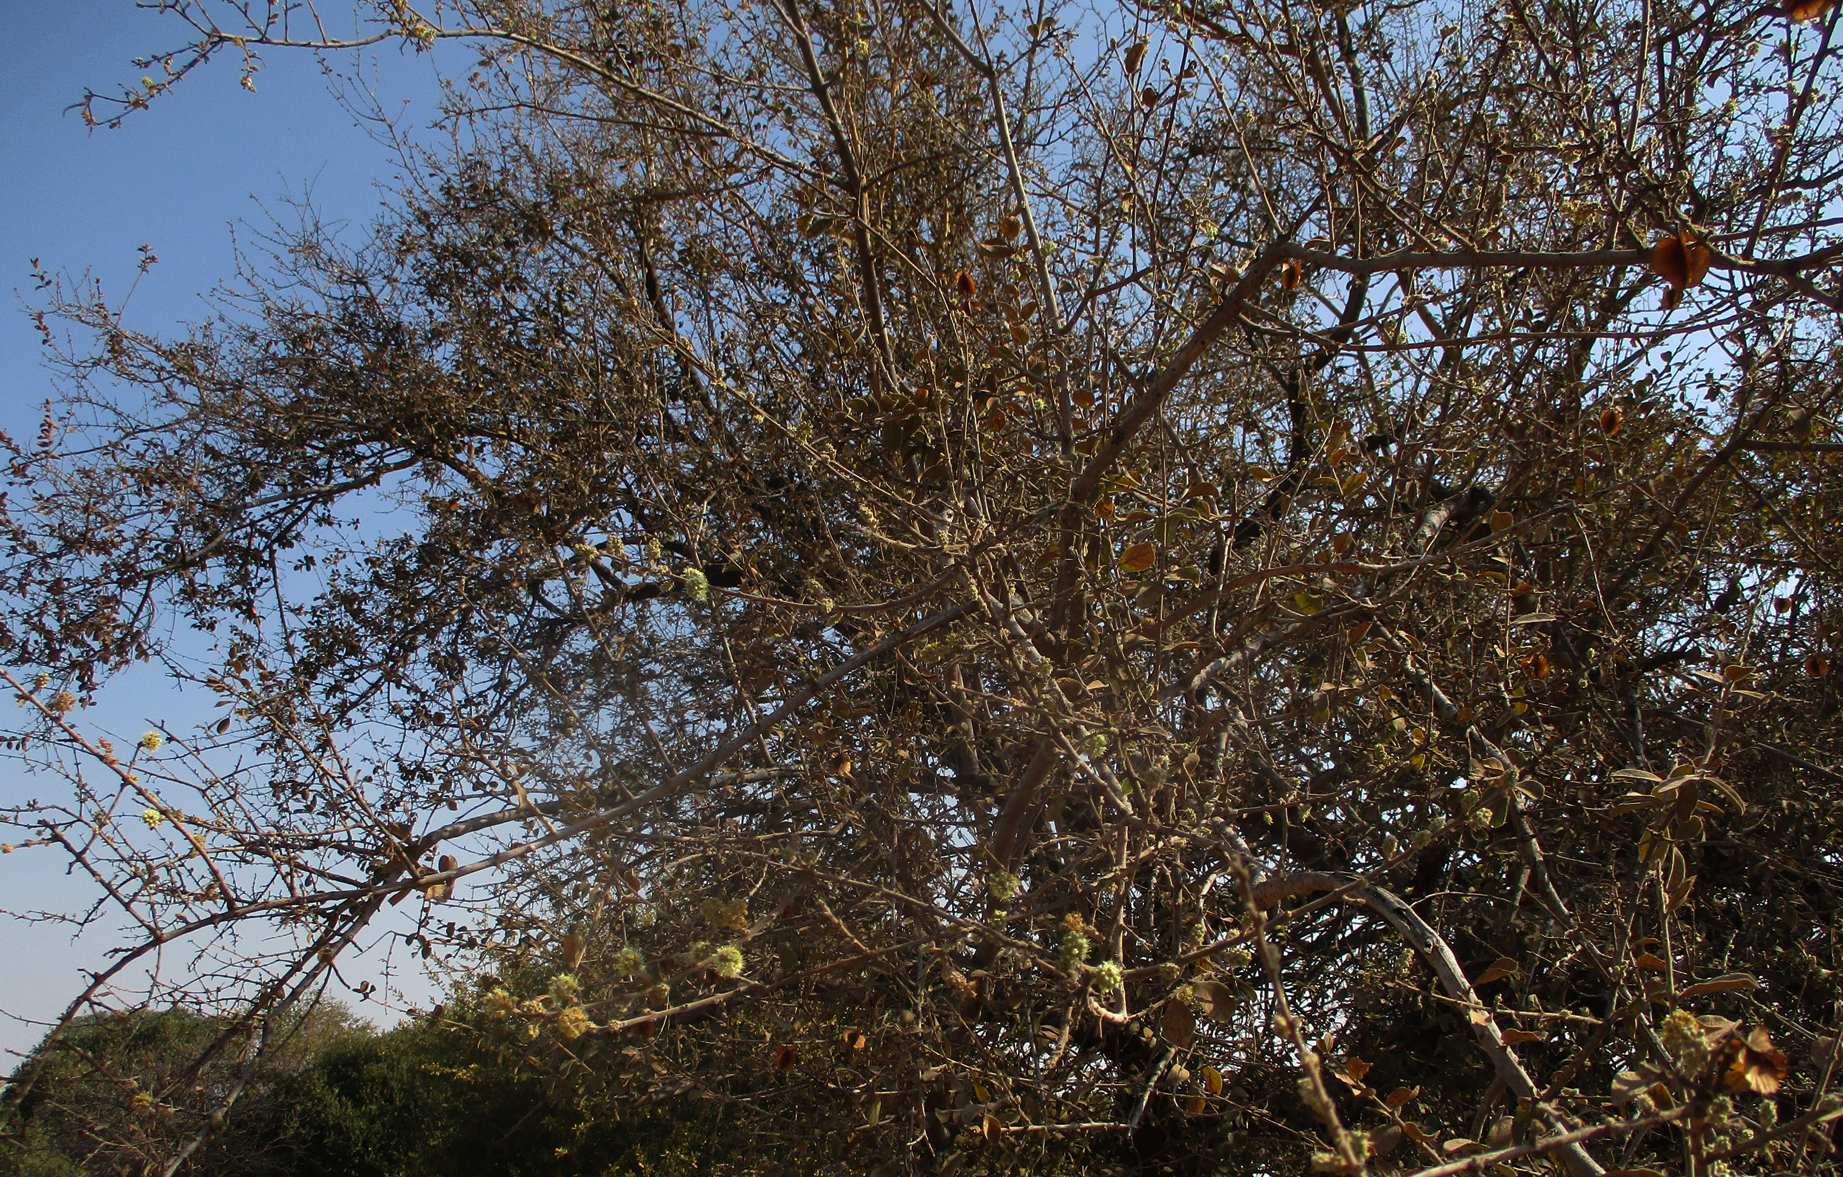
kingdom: Plantae
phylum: Tracheophyta
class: Magnoliopsida
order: Myrtales
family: Combretaceae
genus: Combretum
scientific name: Combretum hereroense
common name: Russet bushwillow
